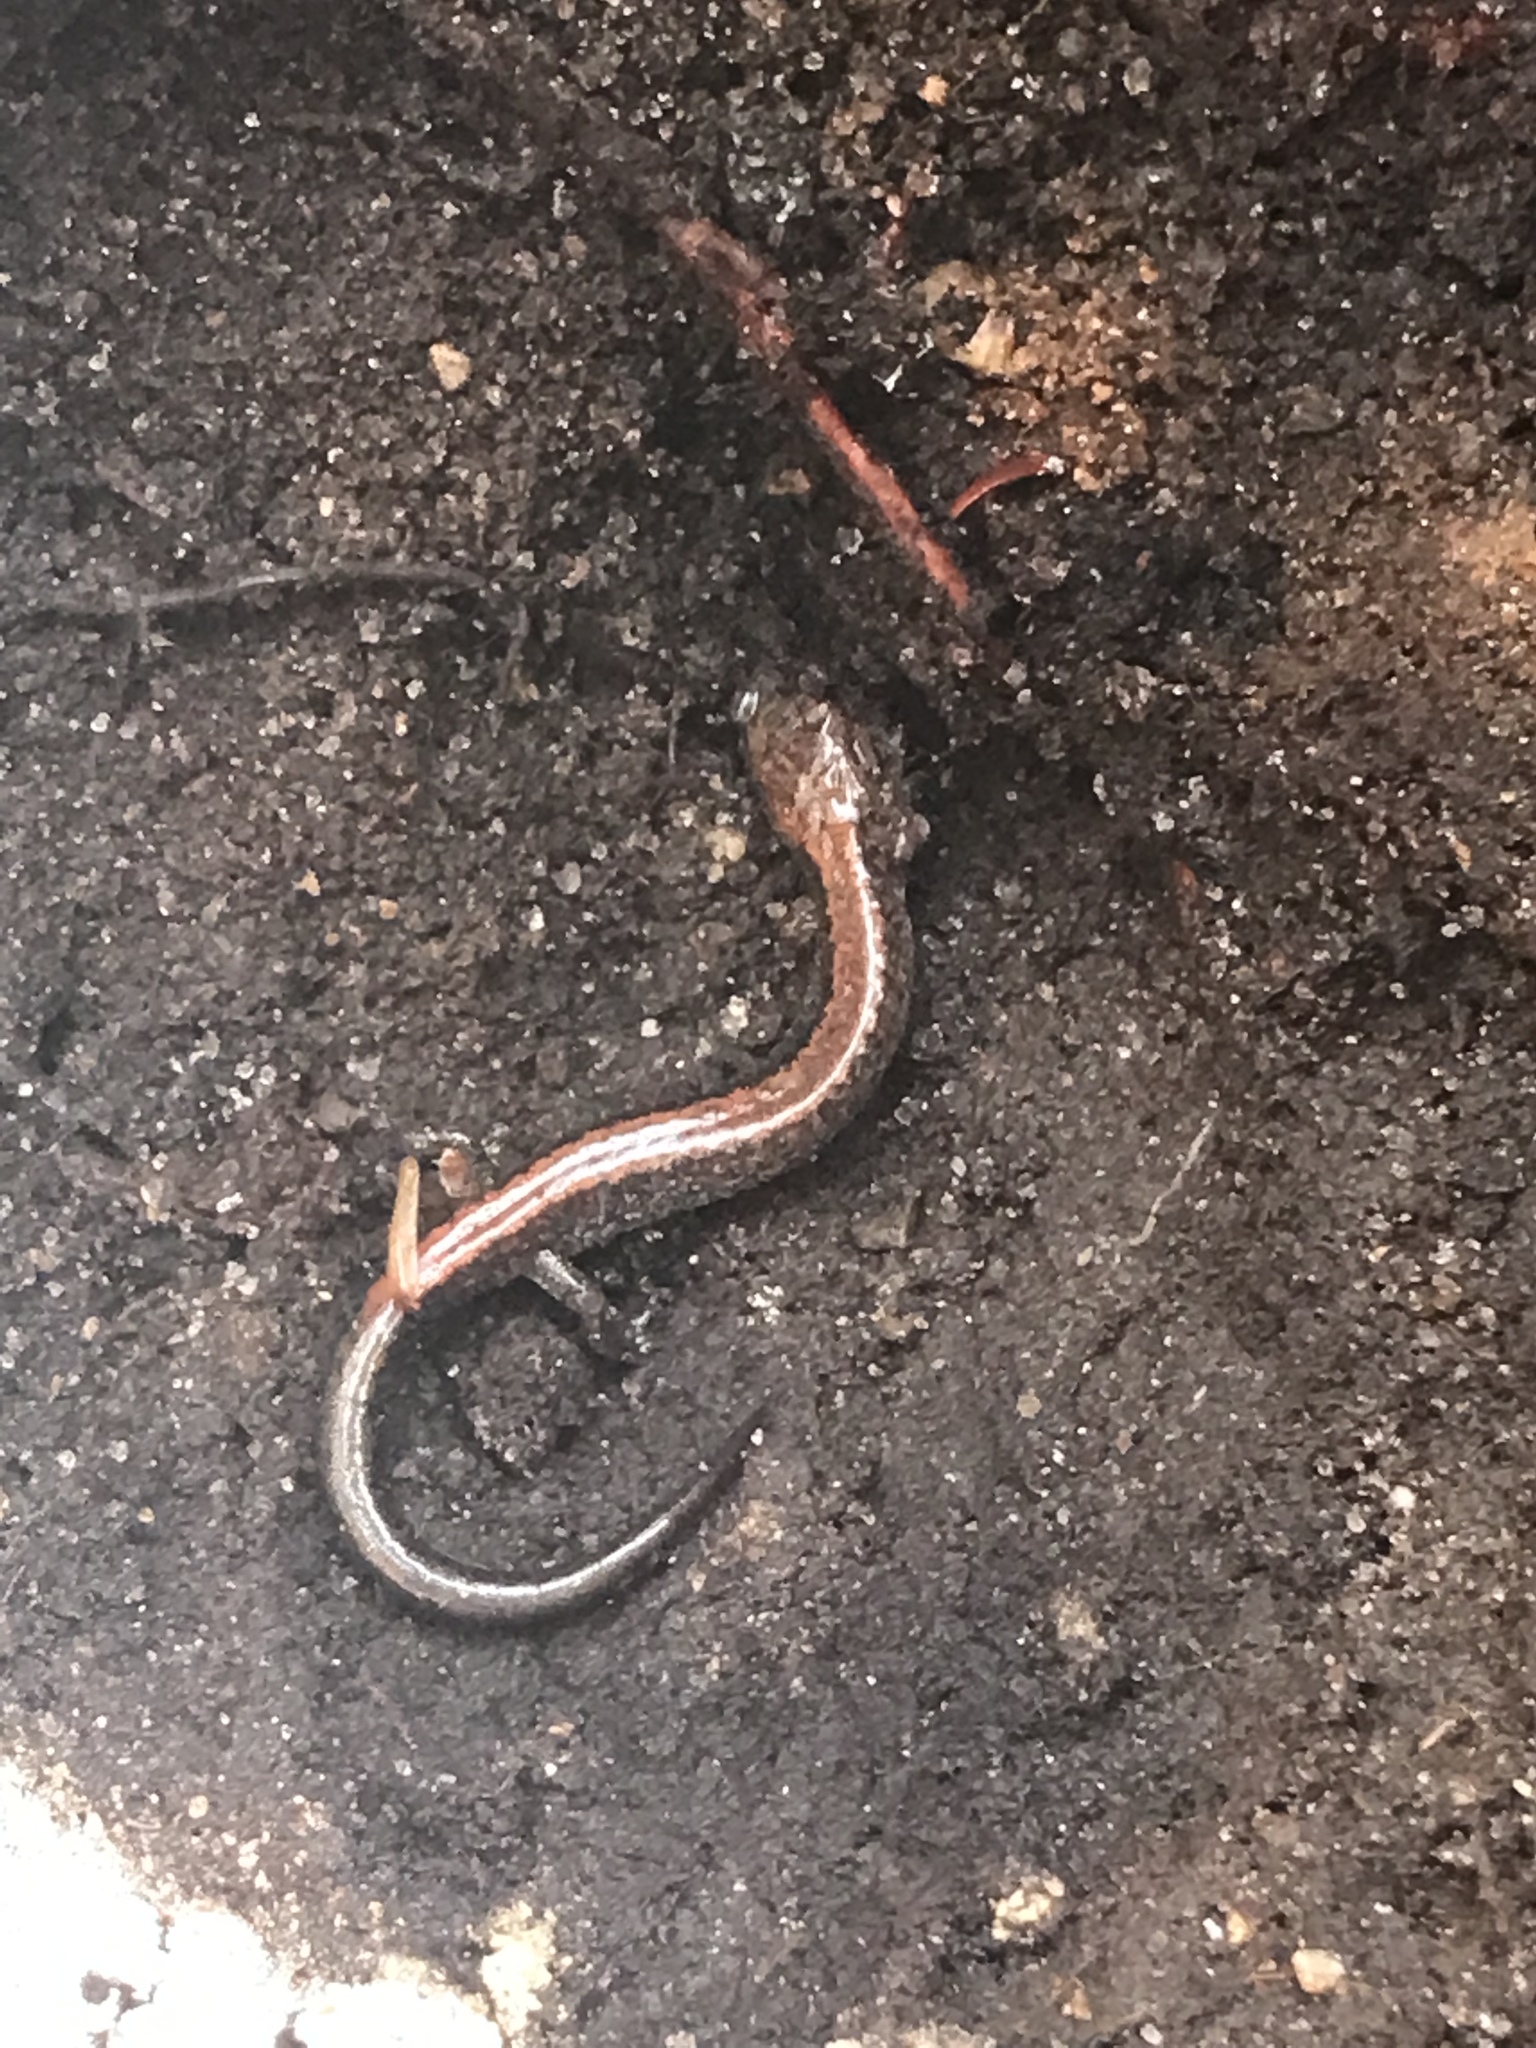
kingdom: Animalia
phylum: Chordata
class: Amphibia
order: Caudata
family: Plethodontidae
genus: Plethodon
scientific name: Plethodon cinereus
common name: Redback salamander
